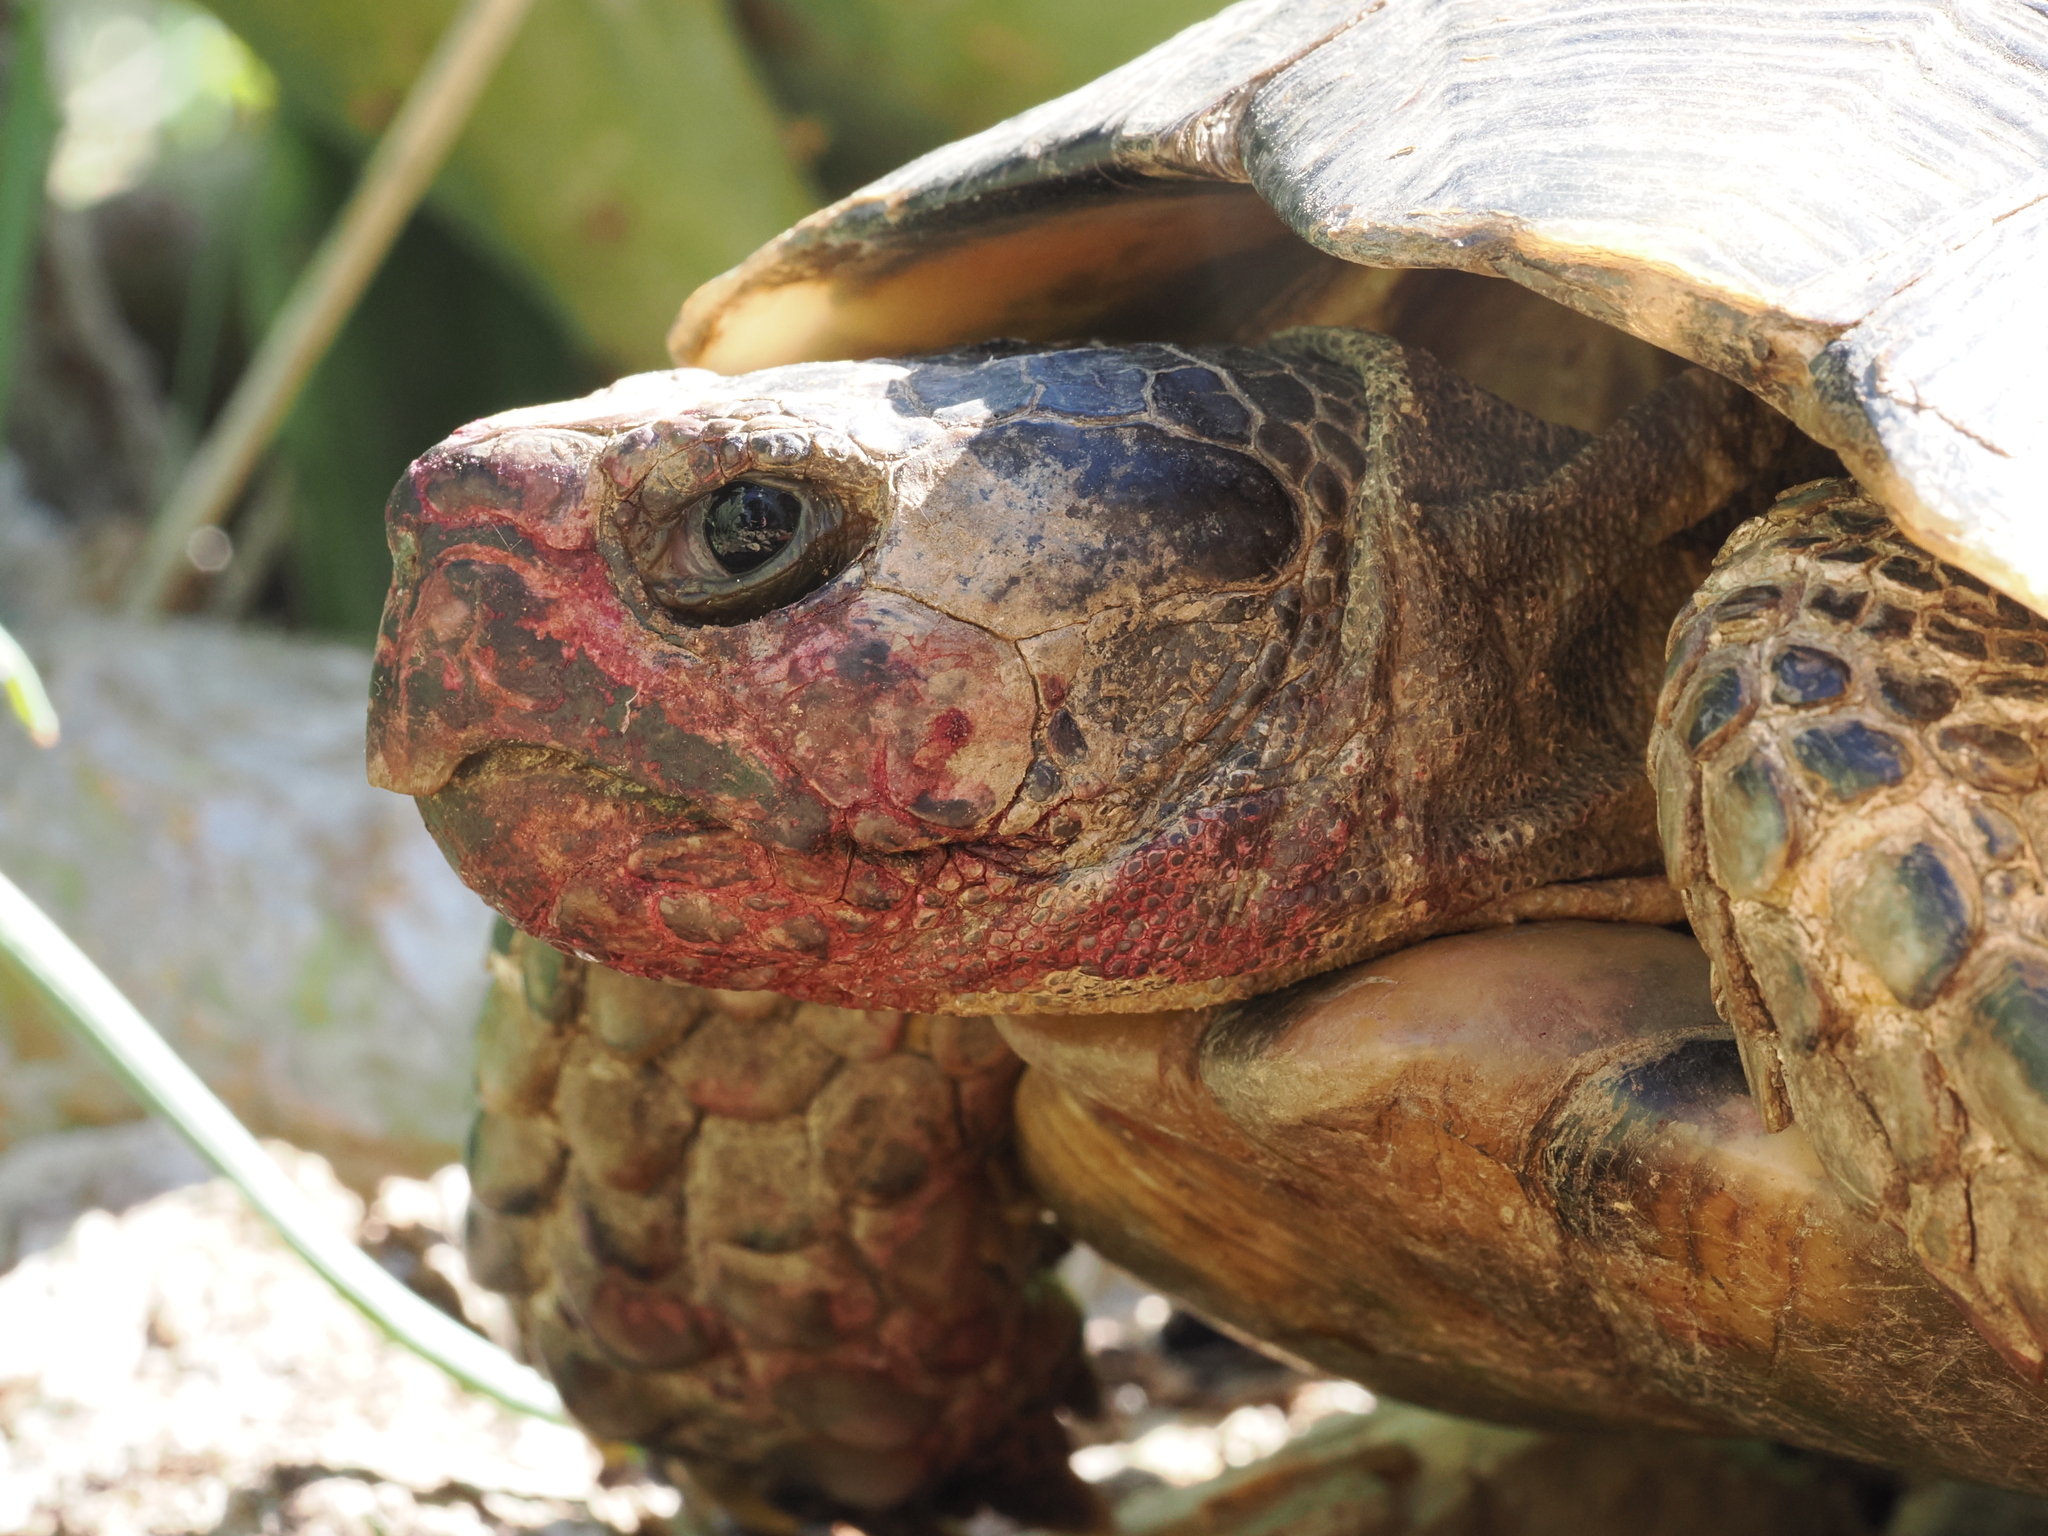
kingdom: Animalia
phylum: Chordata
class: Testudines
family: Testudinidae
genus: Testudo
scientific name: Testudo marginata
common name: Marginated tortoise
